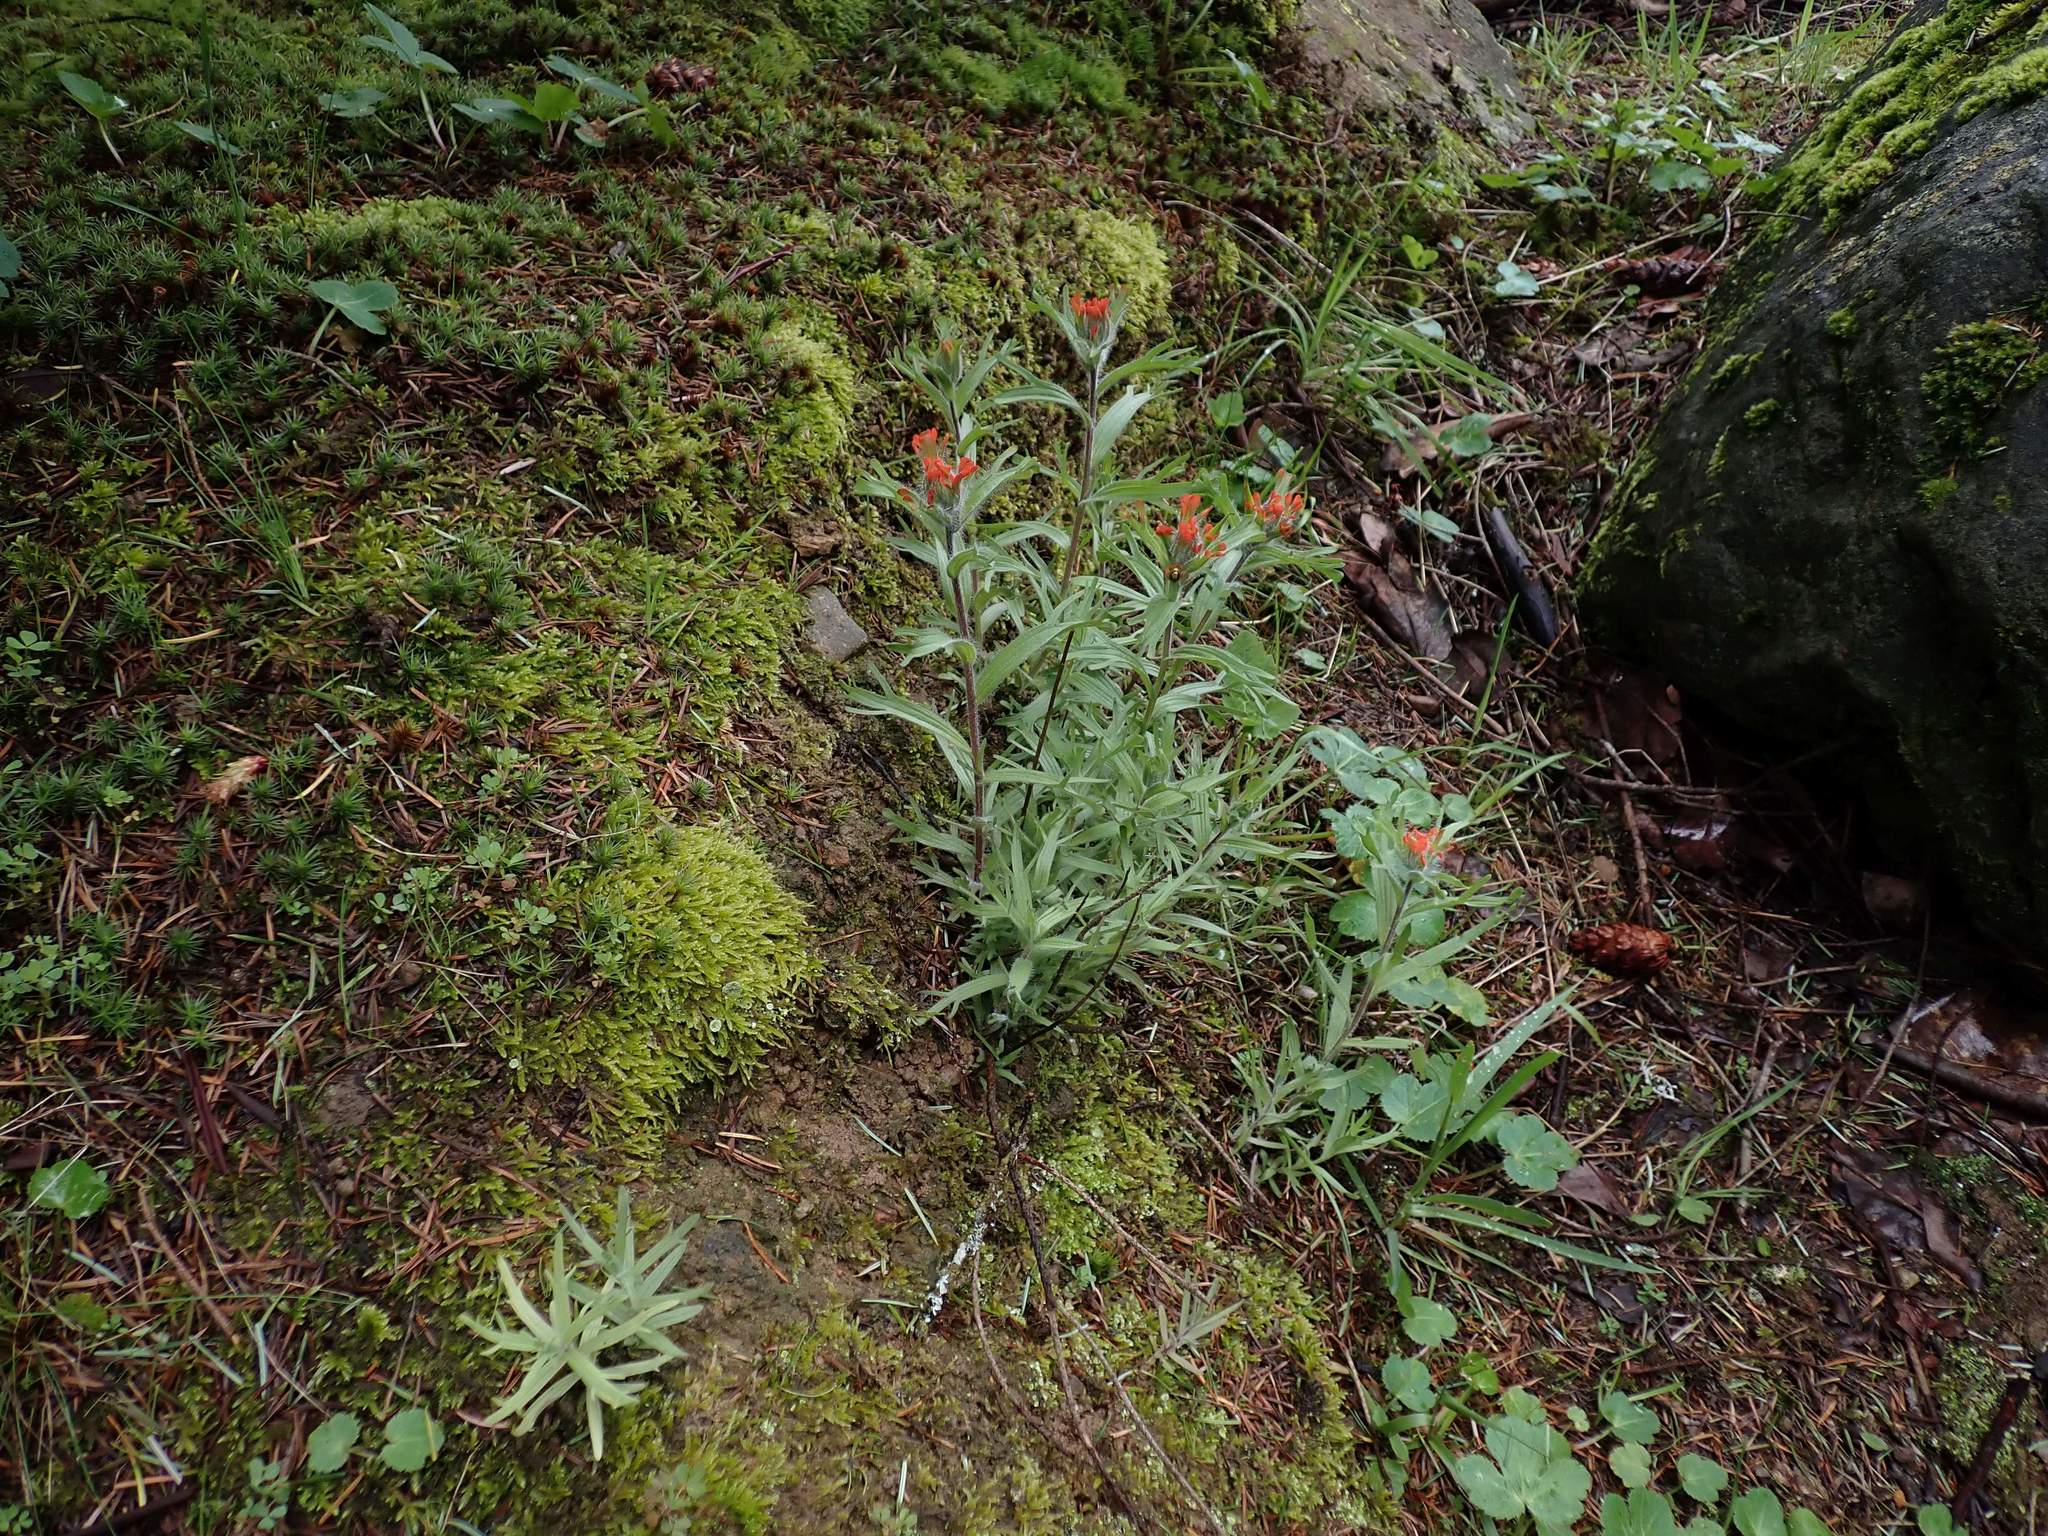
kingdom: Plantae
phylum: Tracheophyta
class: Magnoliopsida
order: Lamiales
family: Orobanchaceae
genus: Castilleja
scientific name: Castilleja hispida
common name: Bristly paintbrush
